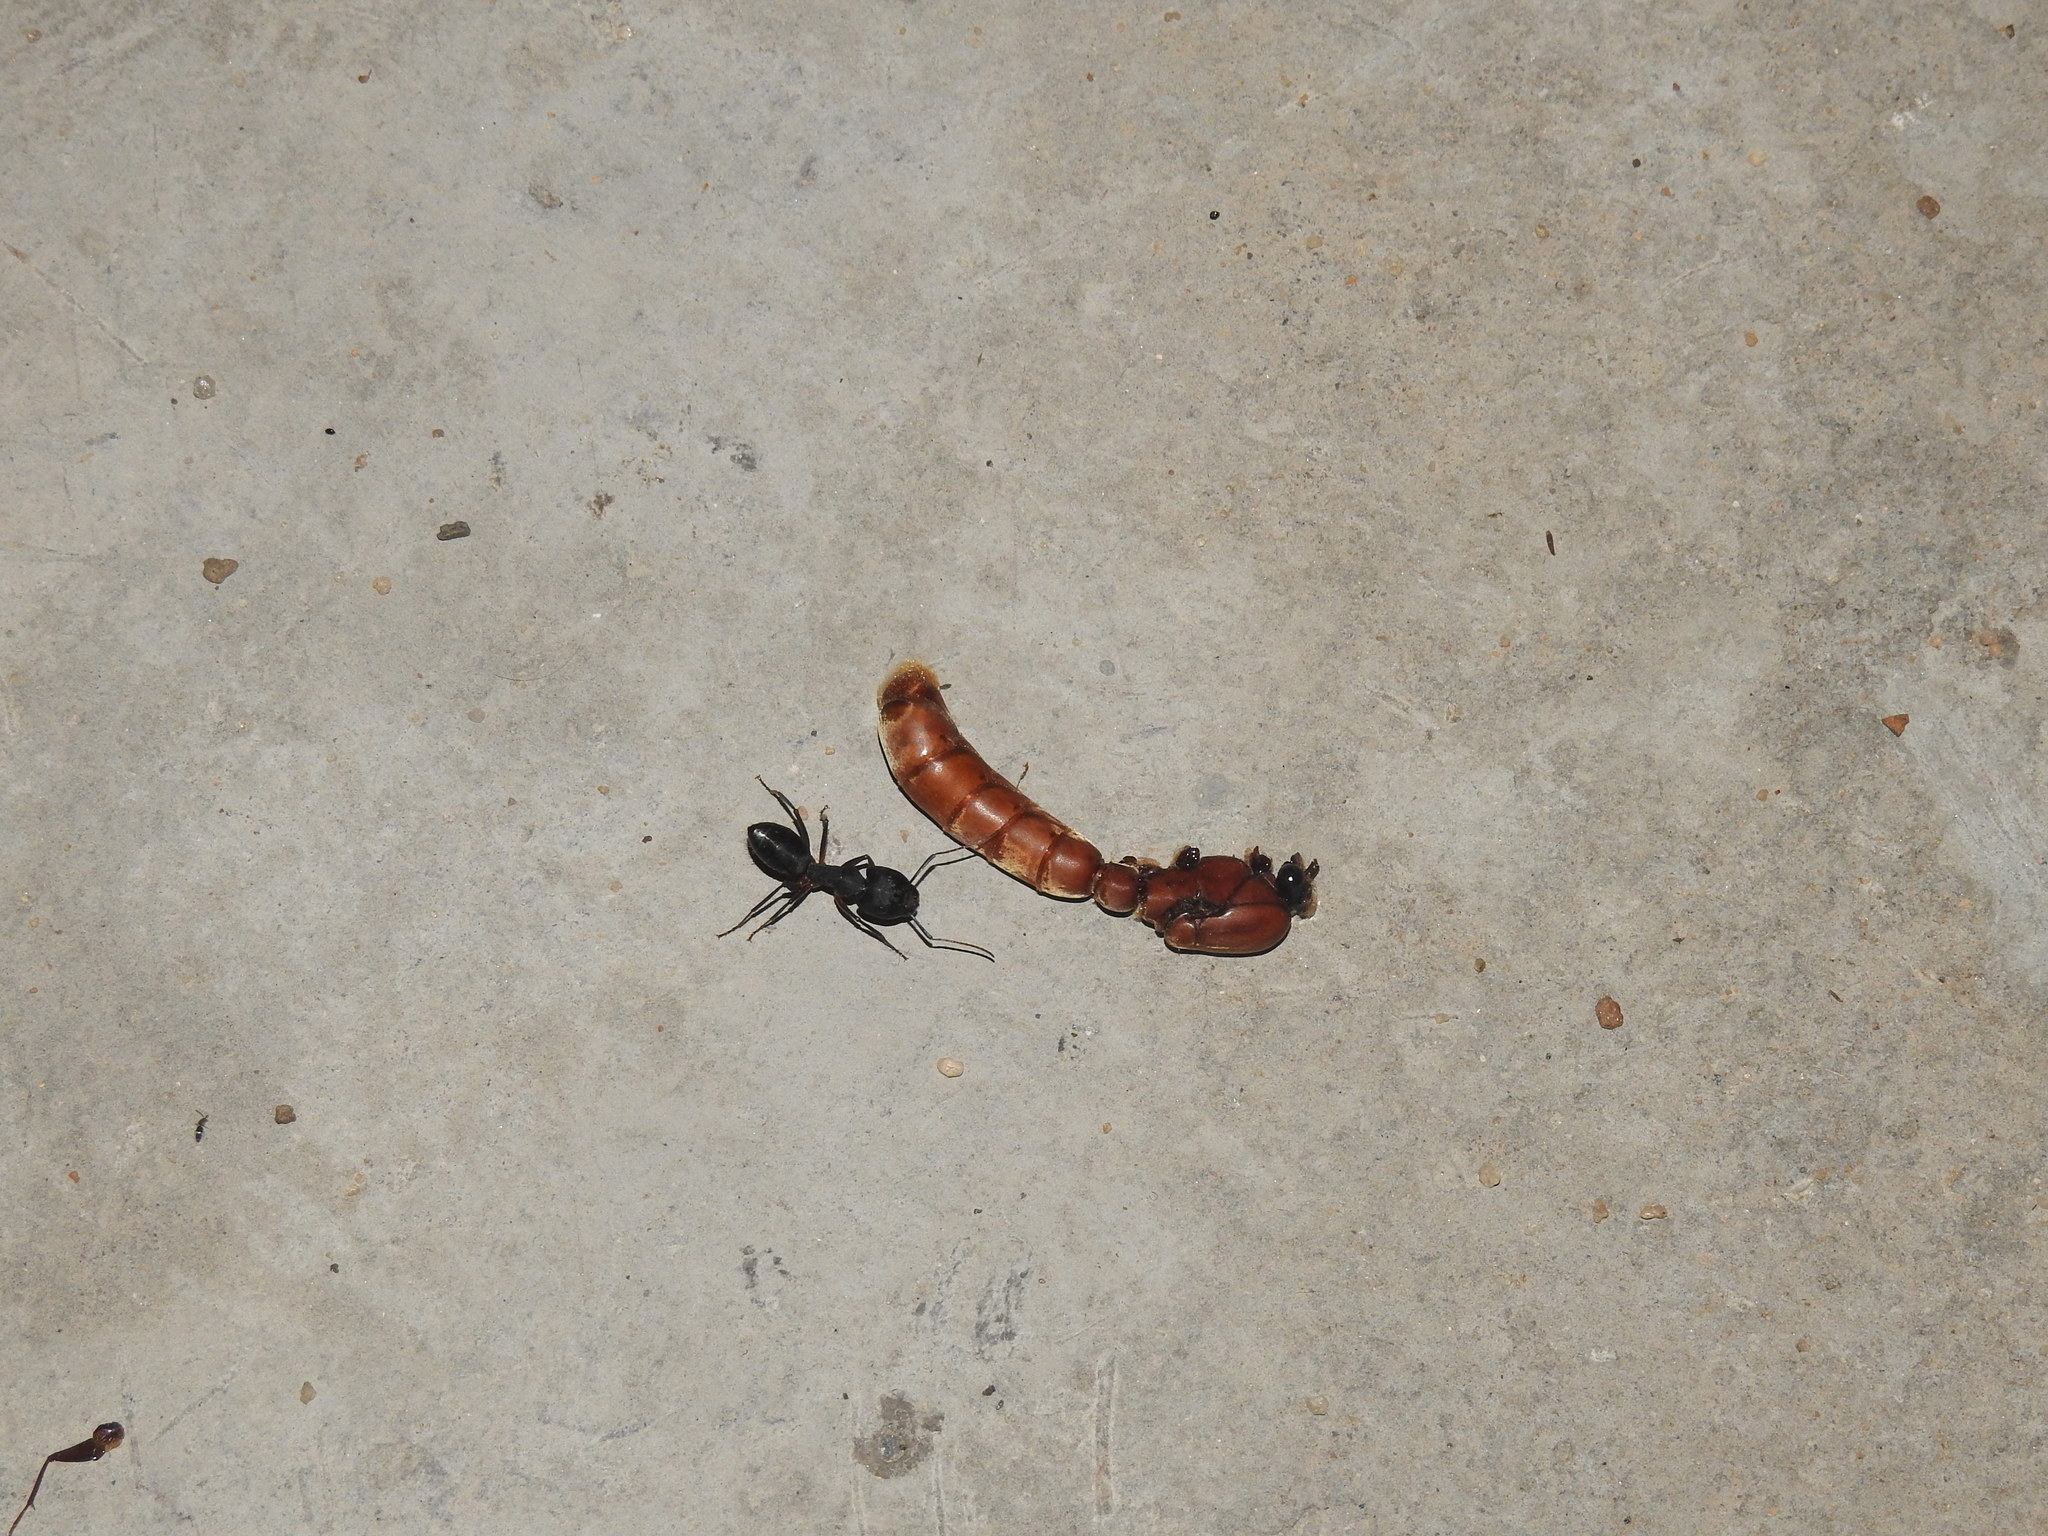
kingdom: Animalia
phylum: Arthropoda
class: Insecta
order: Hymenoptera
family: Formicidae
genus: Camponotus
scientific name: Camponotus compressus
